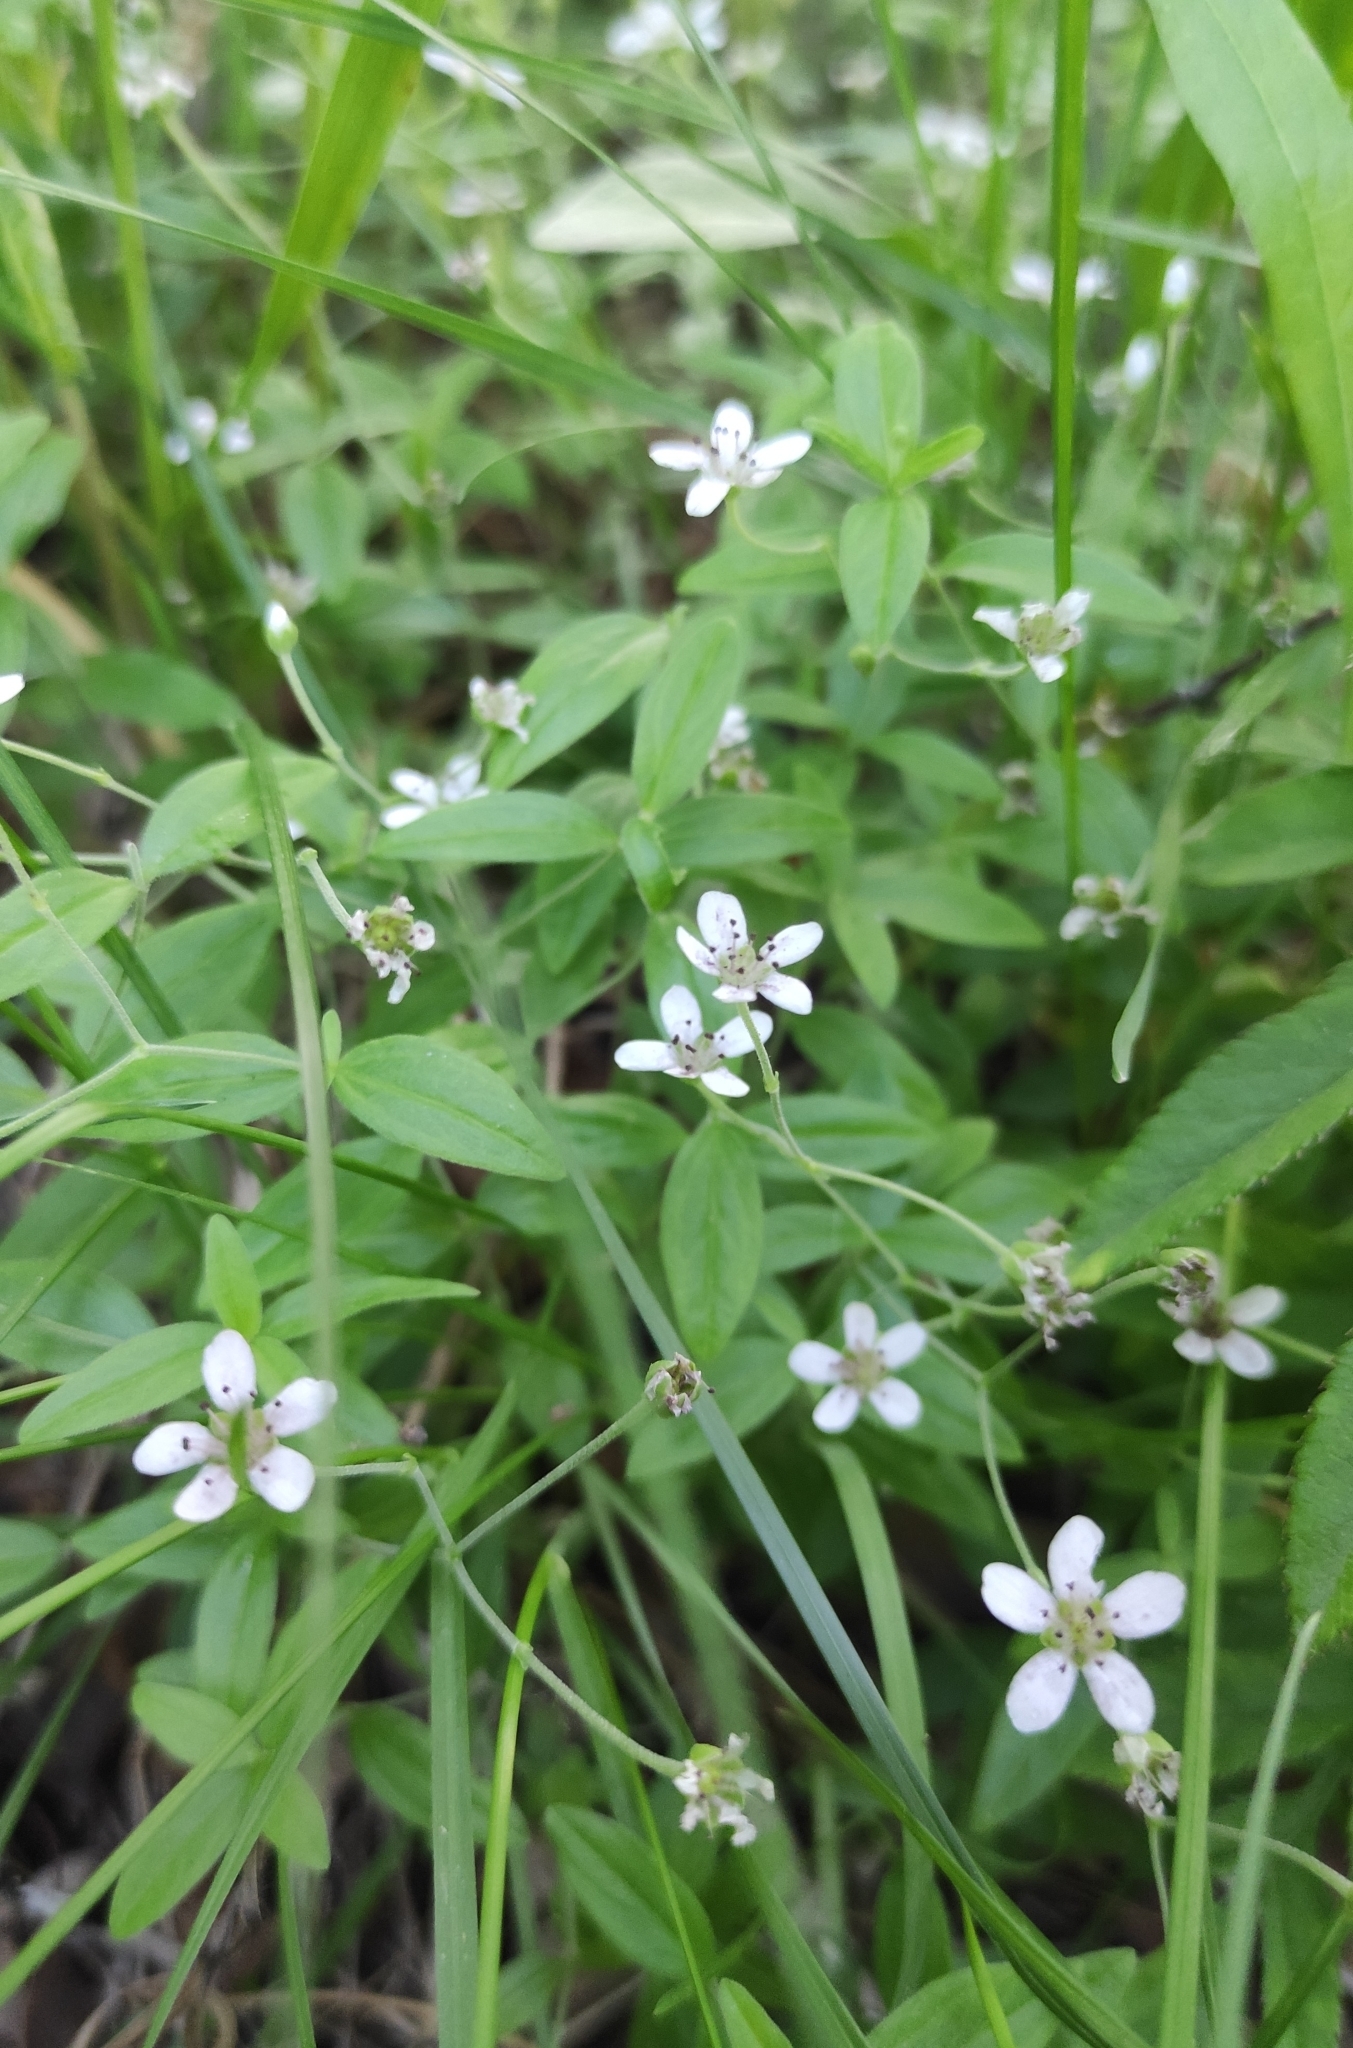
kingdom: Plantae
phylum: Tracheophyta
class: Magnoliopsida
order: Caryophyllales
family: Caryophyllaceae
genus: Moehringia
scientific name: Moehringia lateriflora
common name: Blunt-leaved sandwort
